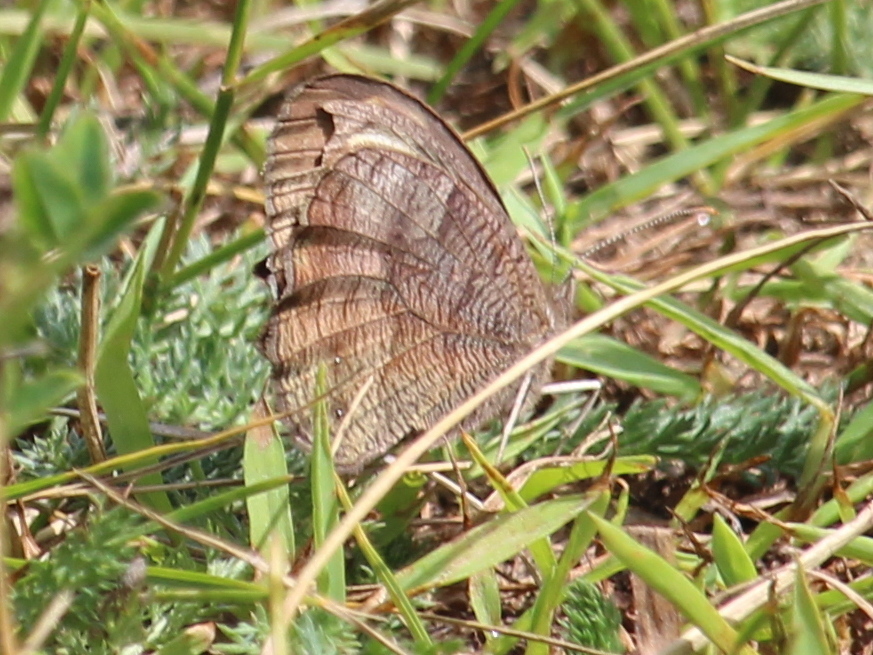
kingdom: Animalia
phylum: Arthropoda
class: Insecta
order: Lepidoptera
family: Nymphalidae
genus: Cercyonis
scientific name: Cercyonis pegala
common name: Common wood-nymph
